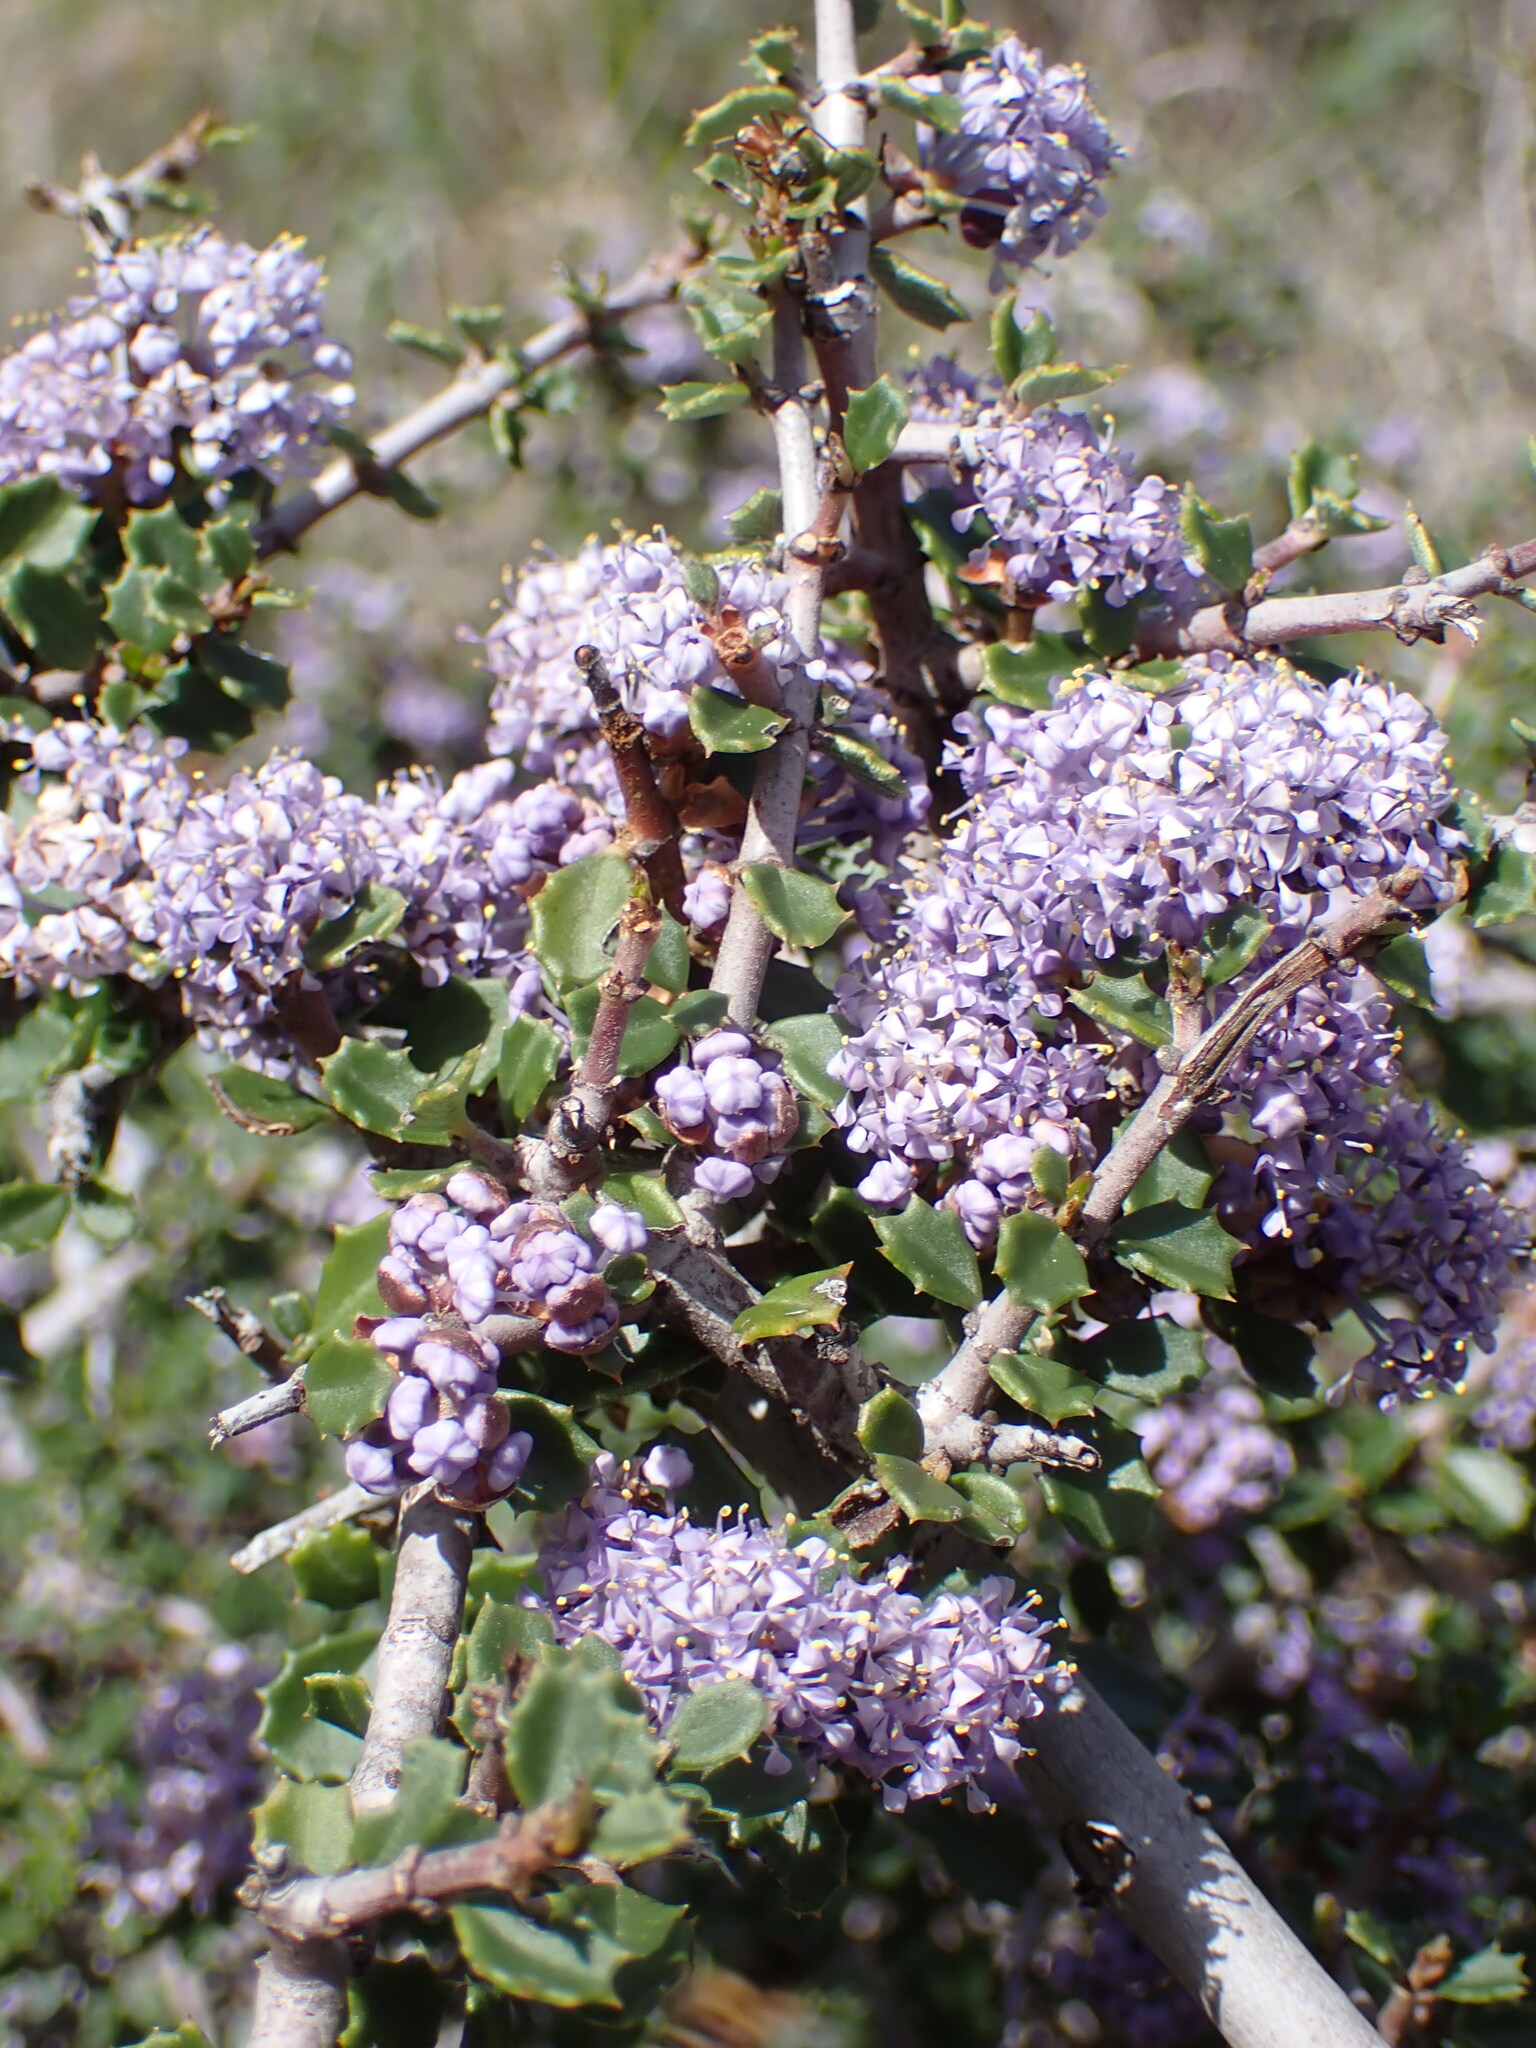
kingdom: Plantae
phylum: Tracheophyta
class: Magnoliopsida
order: Rosales
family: Rhamnaceae
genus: Ceanothus
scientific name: Ceanothus jepsonii
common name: Muskbrush
